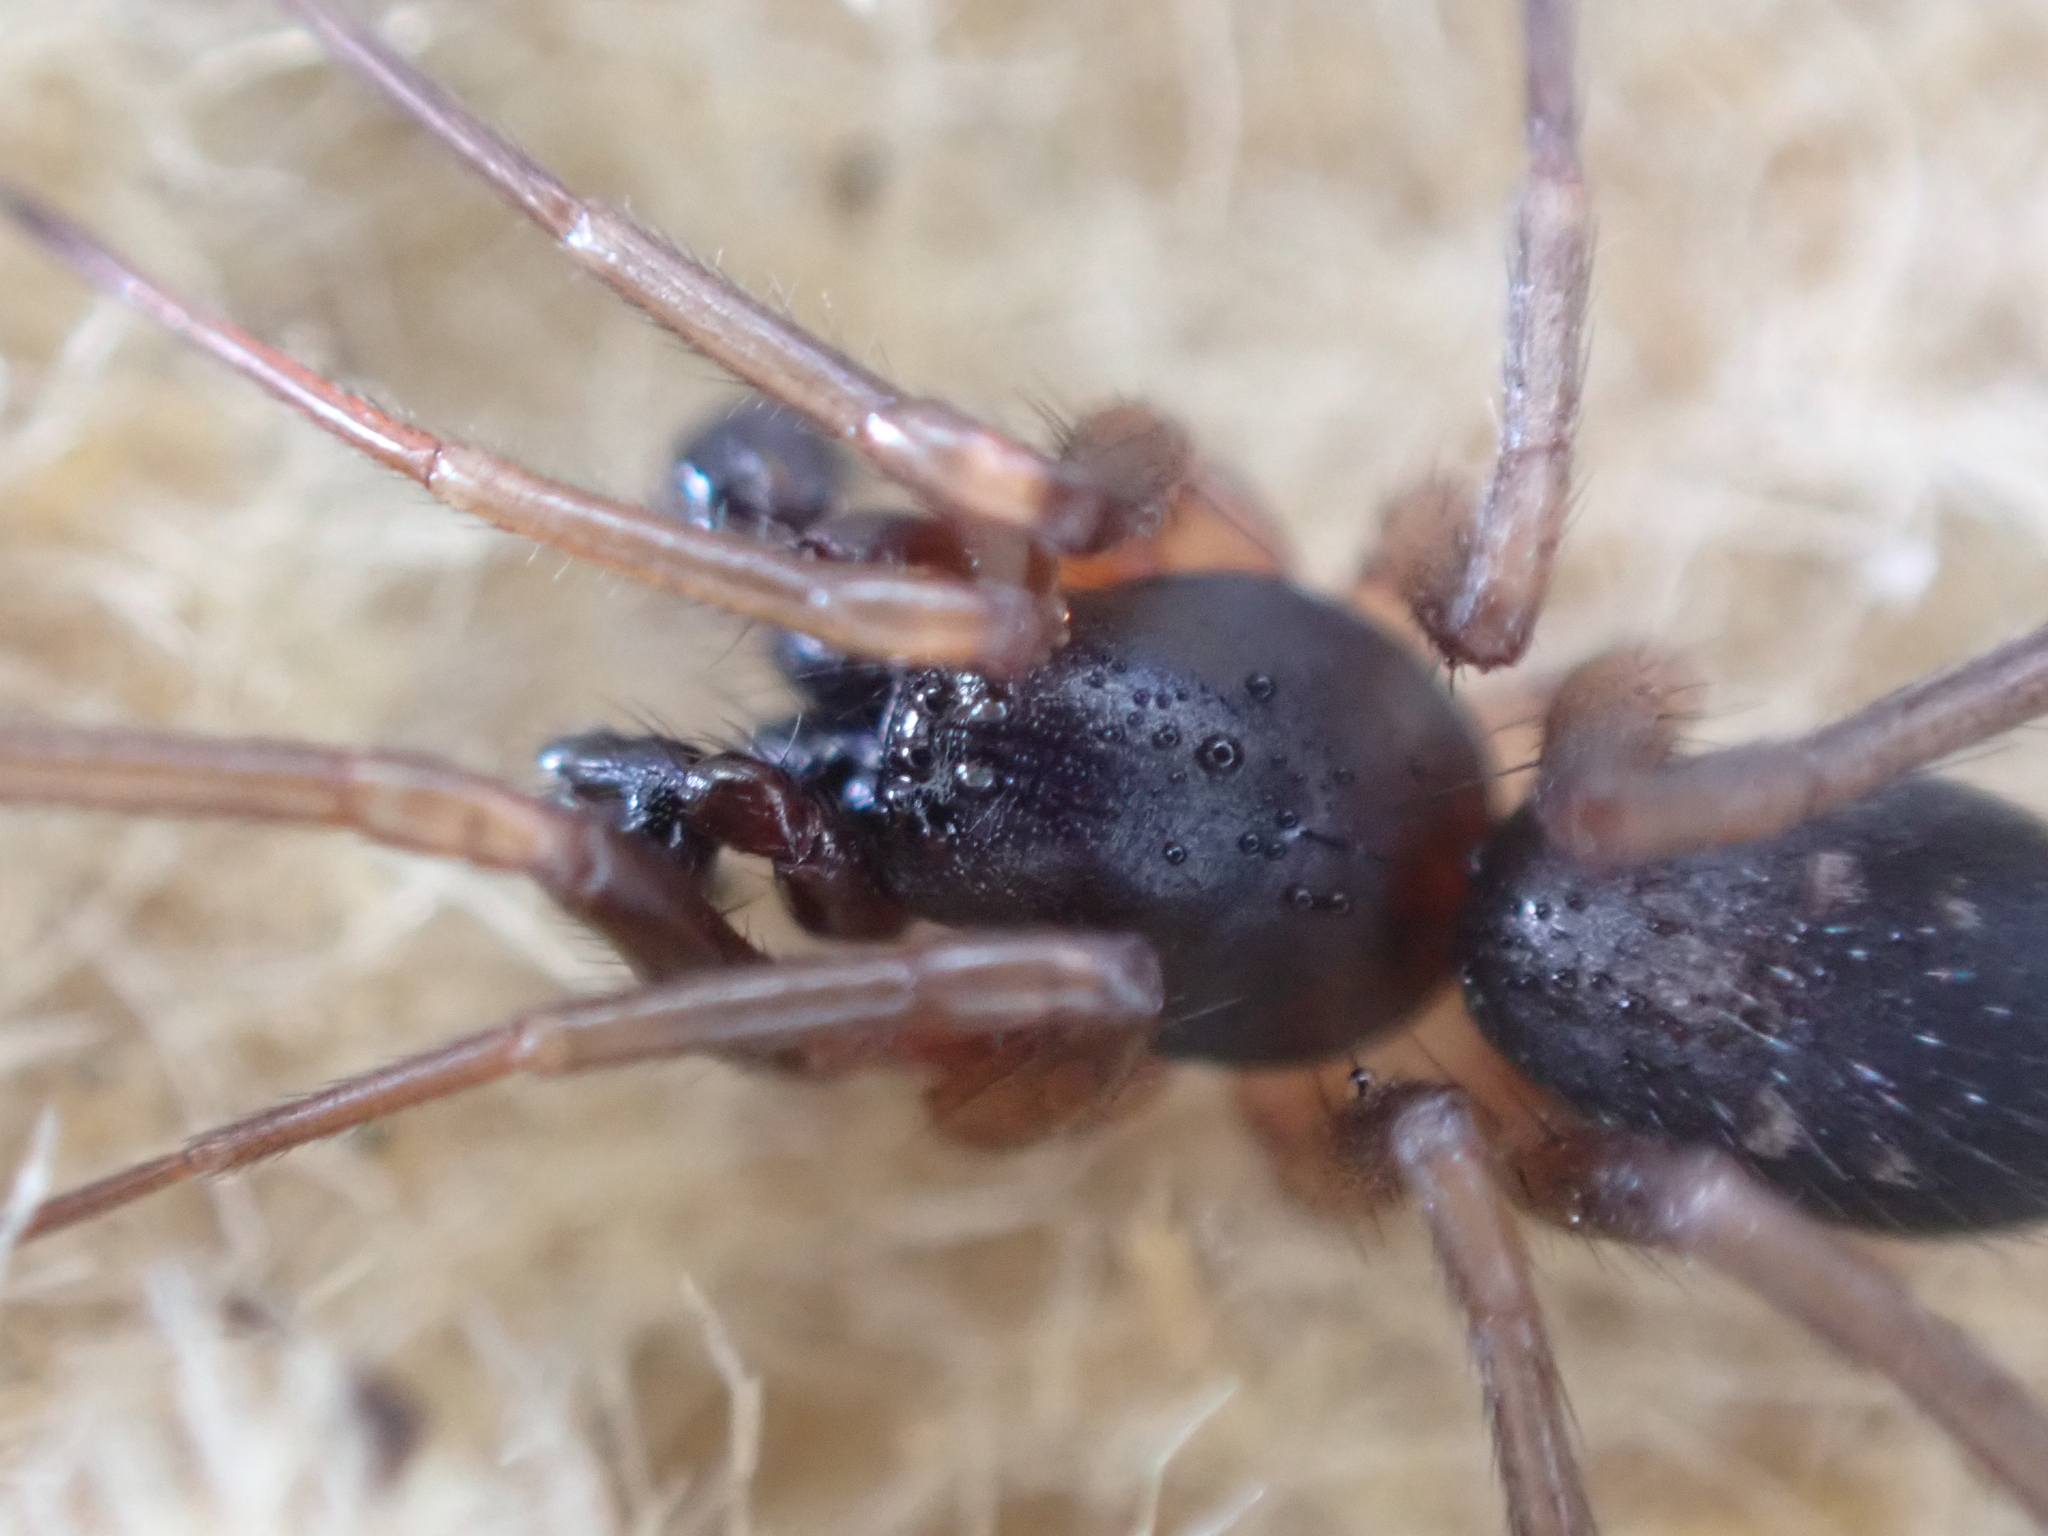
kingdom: Animalia
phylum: Arthropoda
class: Arachnida
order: Araneae
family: Corinnidae
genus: Falconina
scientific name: Falconina gracilis
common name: Antmimic spider
